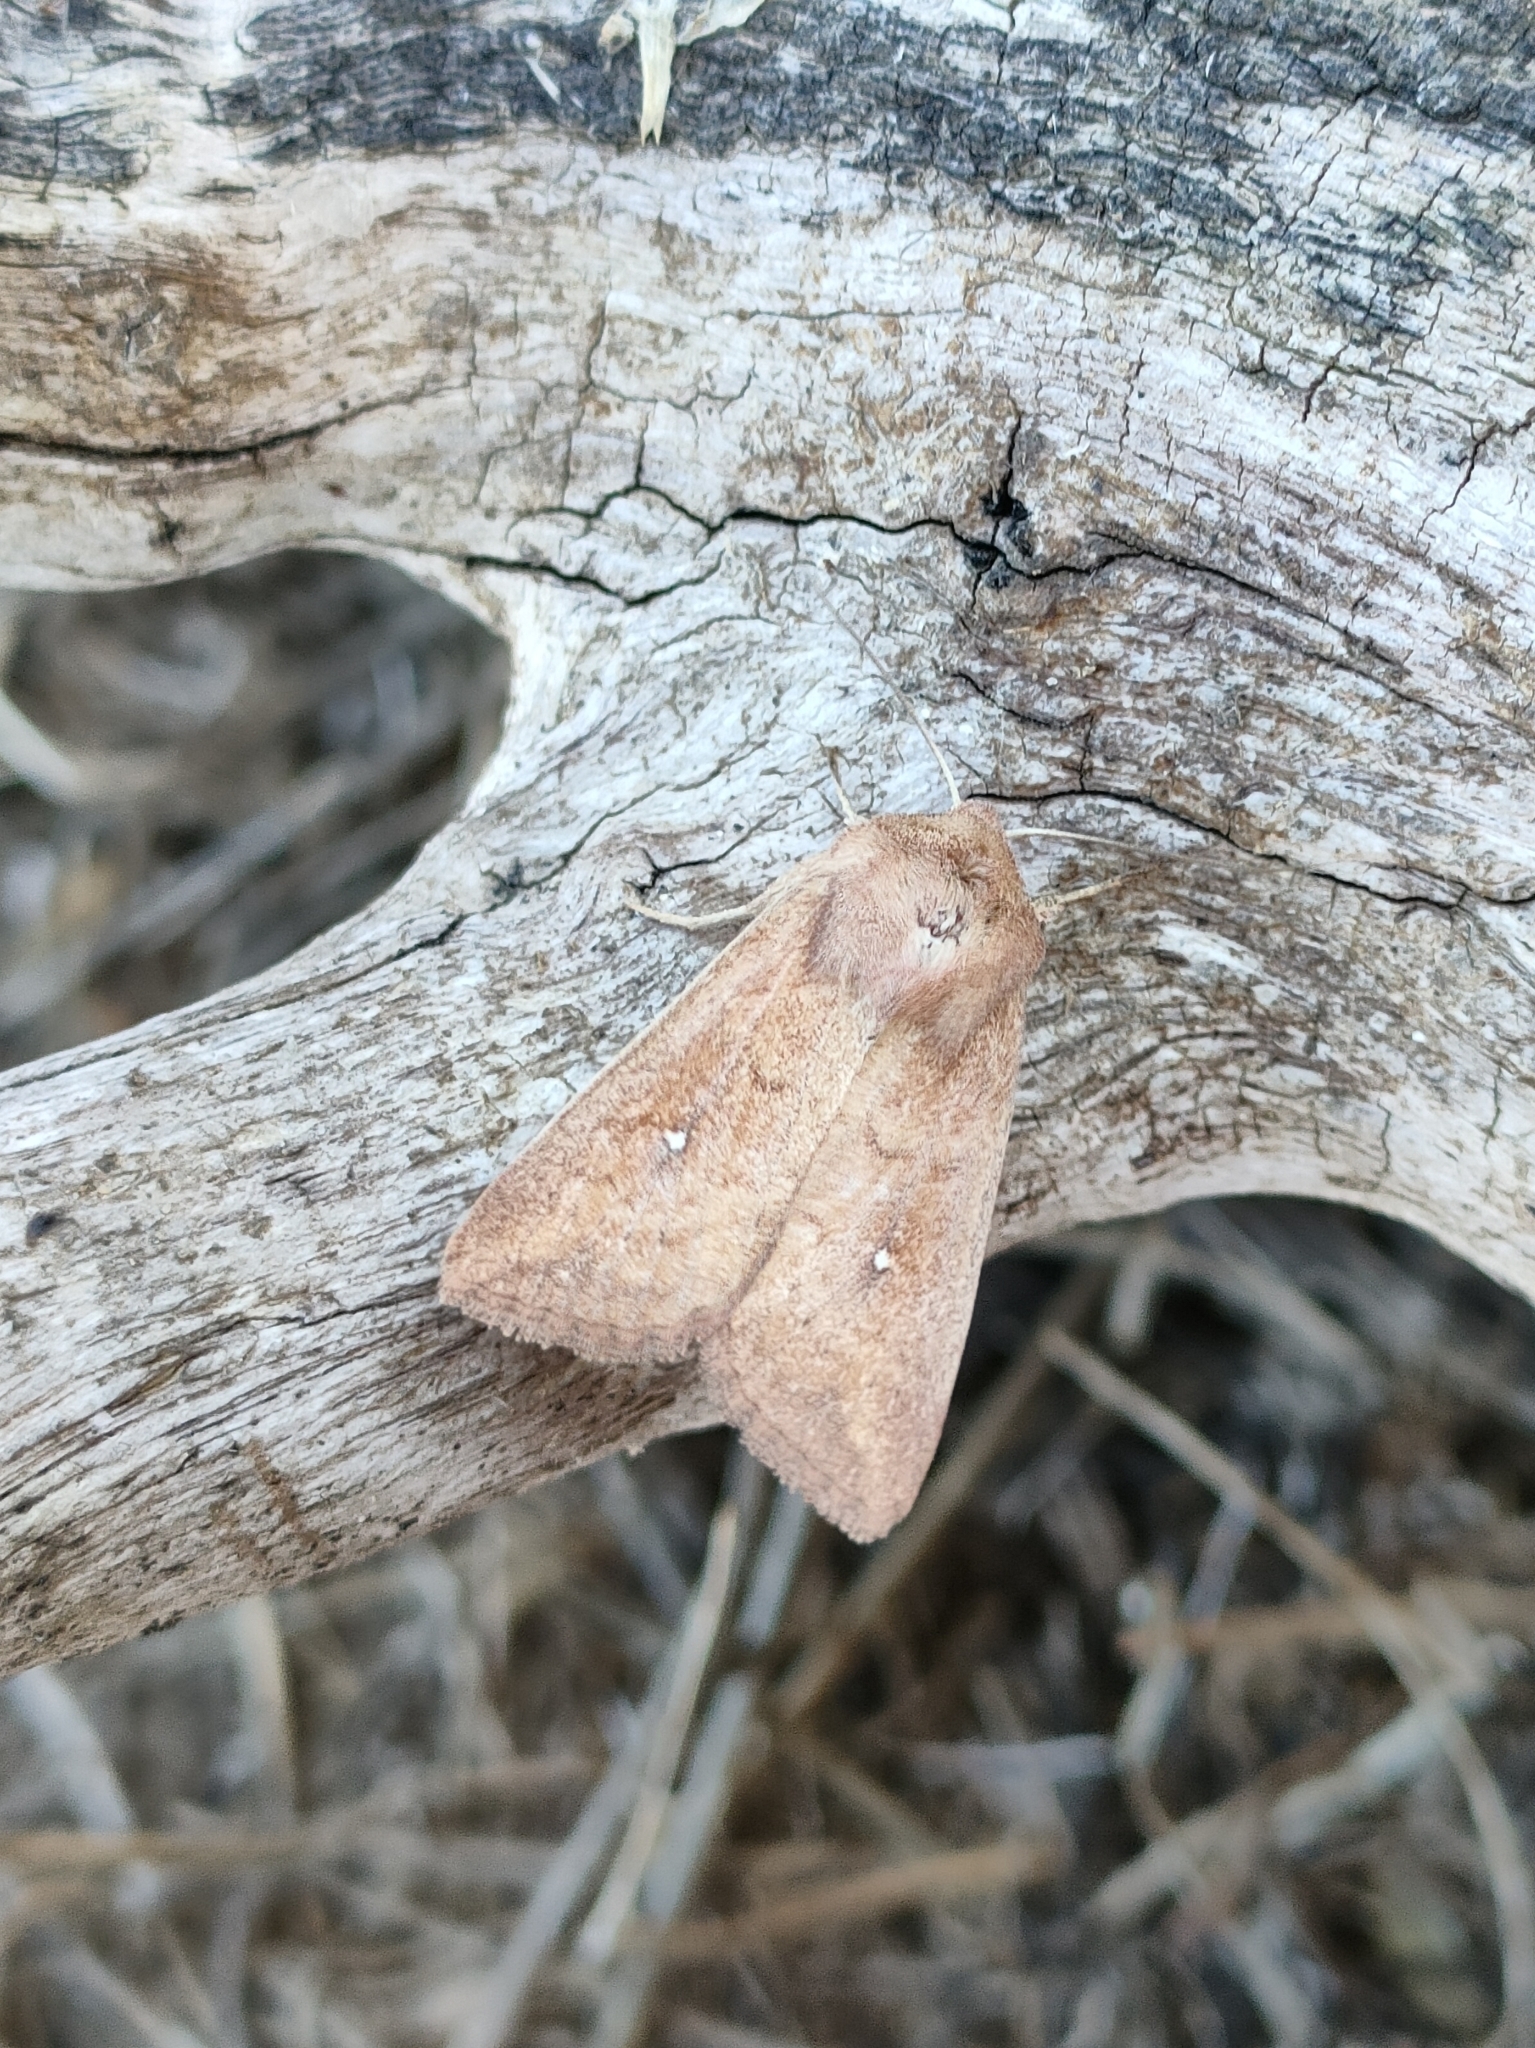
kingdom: Animalia
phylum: Arthropoda
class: Insecta
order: Lepidoptera
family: Noctuidae
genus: Mythimna
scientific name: Mythimna albipuncta
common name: White-point
